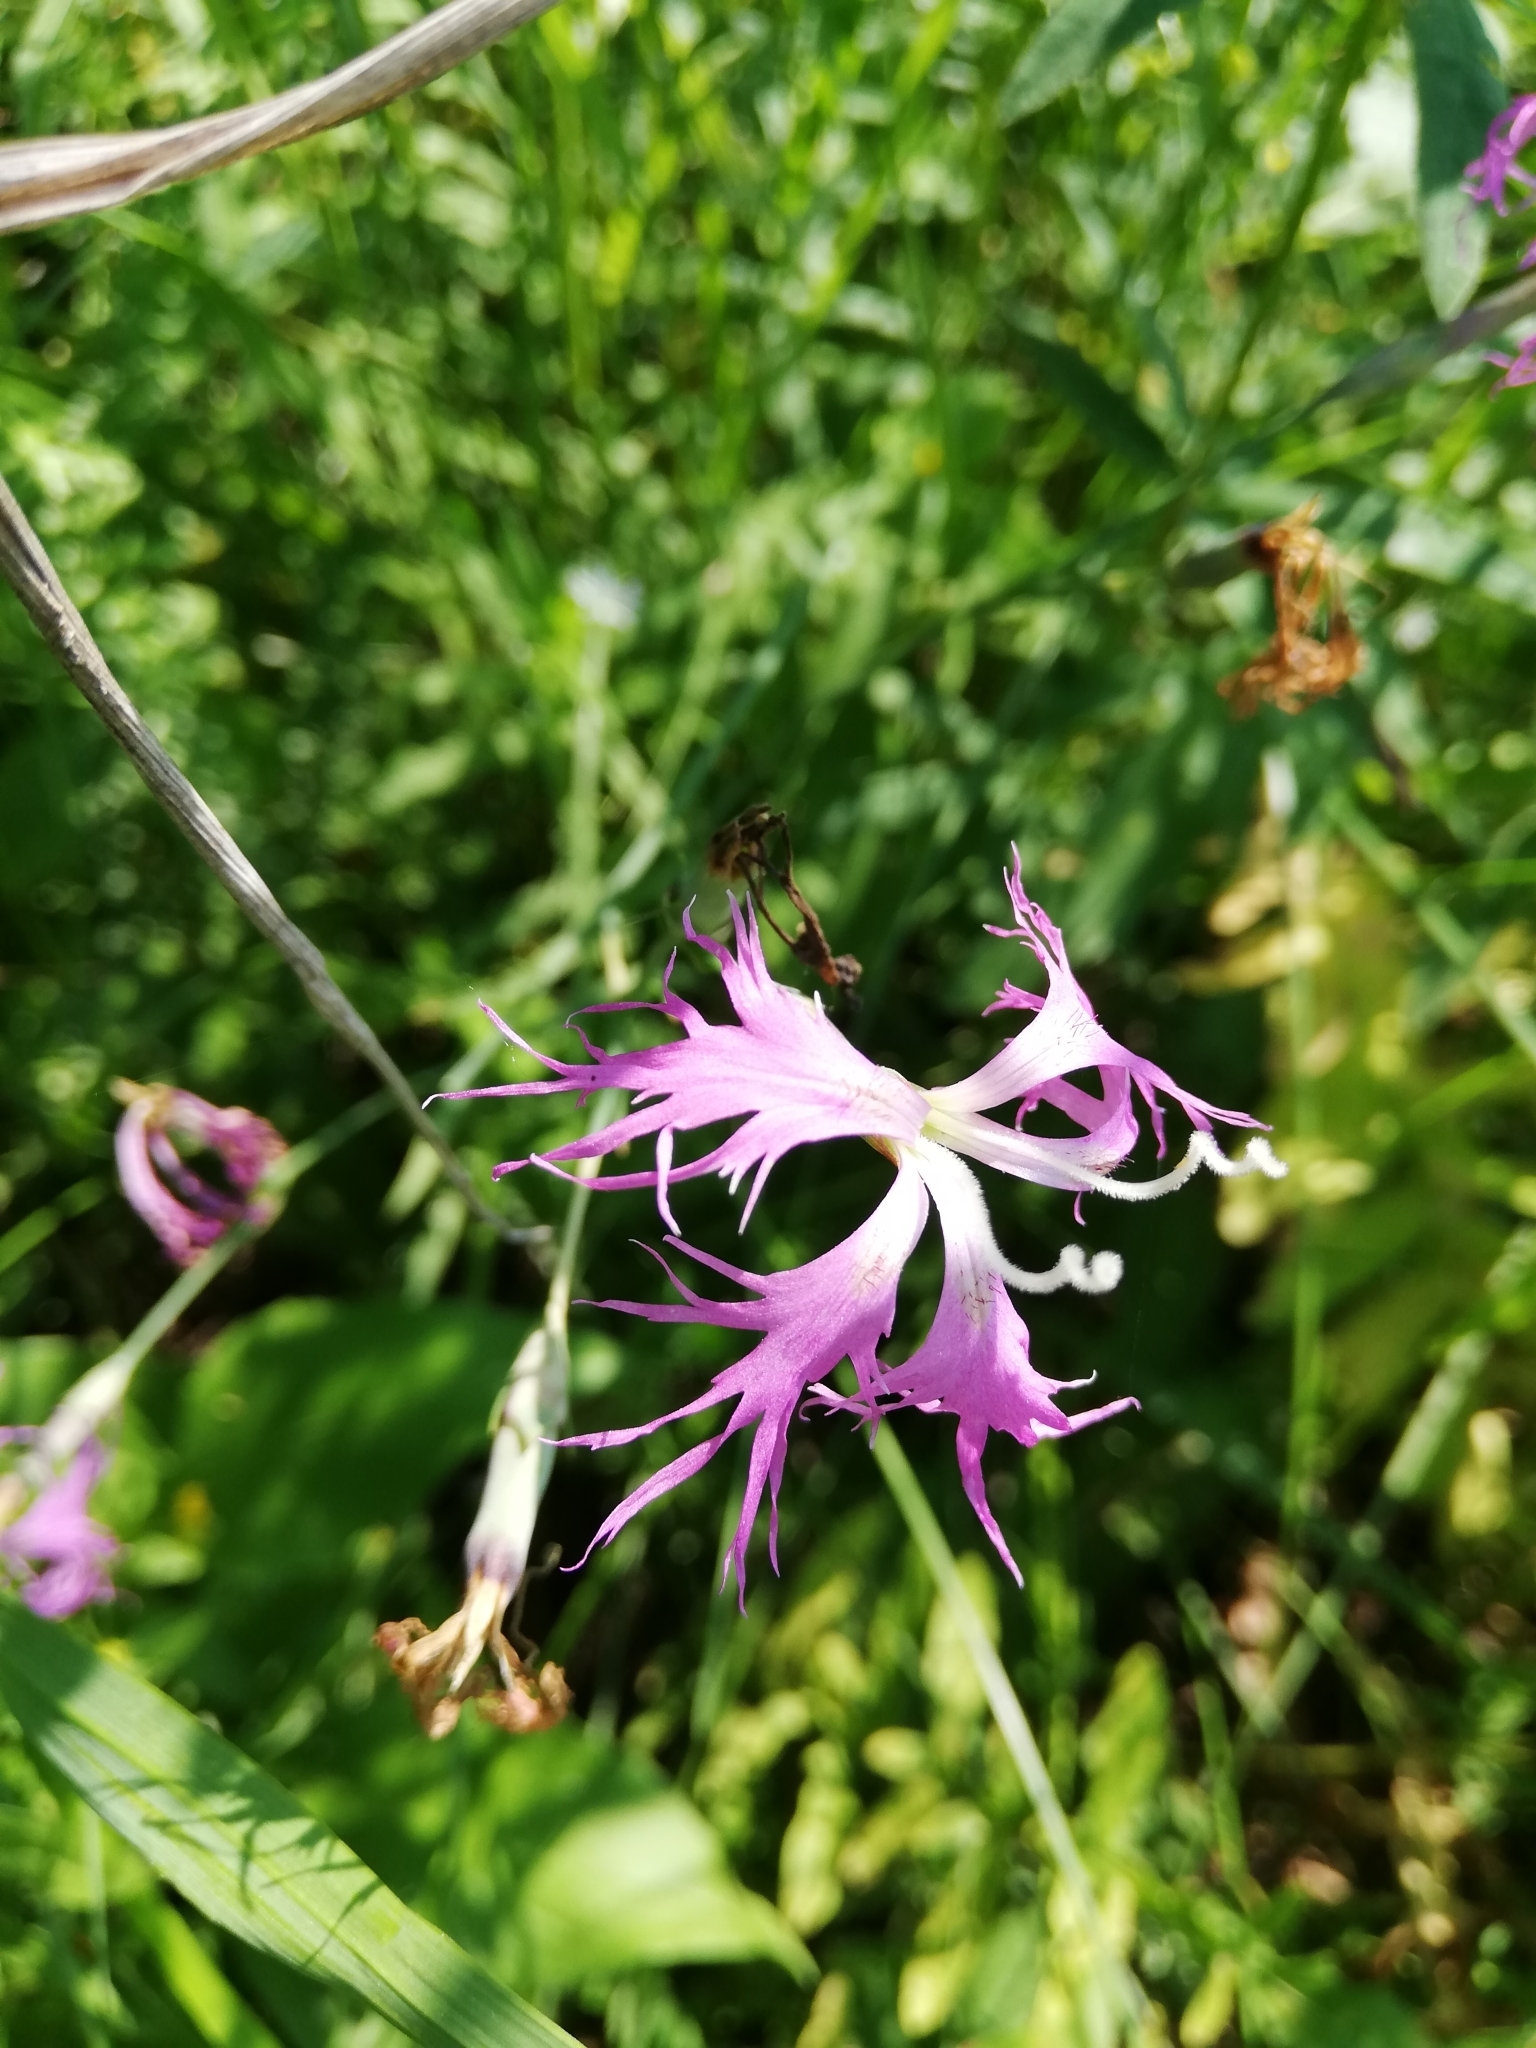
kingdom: Plantae
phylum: Tracheophyta
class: Magnoliopsida
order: Caryophyllales
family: Caryophyllaceae
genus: Dianthus
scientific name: Dianthus superbus
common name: Fringed pink
